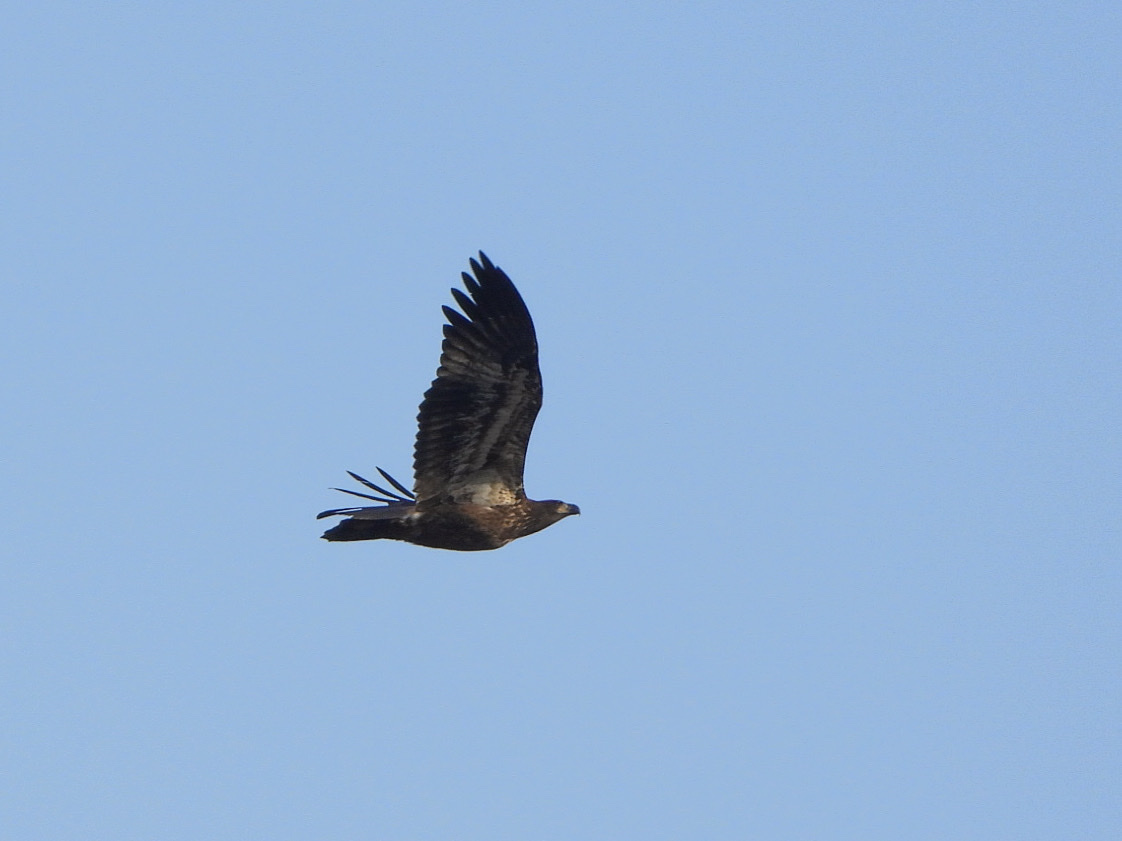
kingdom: Animalia
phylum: Chordata
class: Aves
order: Accipitriformes
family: Accipitridae
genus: Haliaeetus
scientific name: Haliaeetus leucocephalus
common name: Bald eagle
